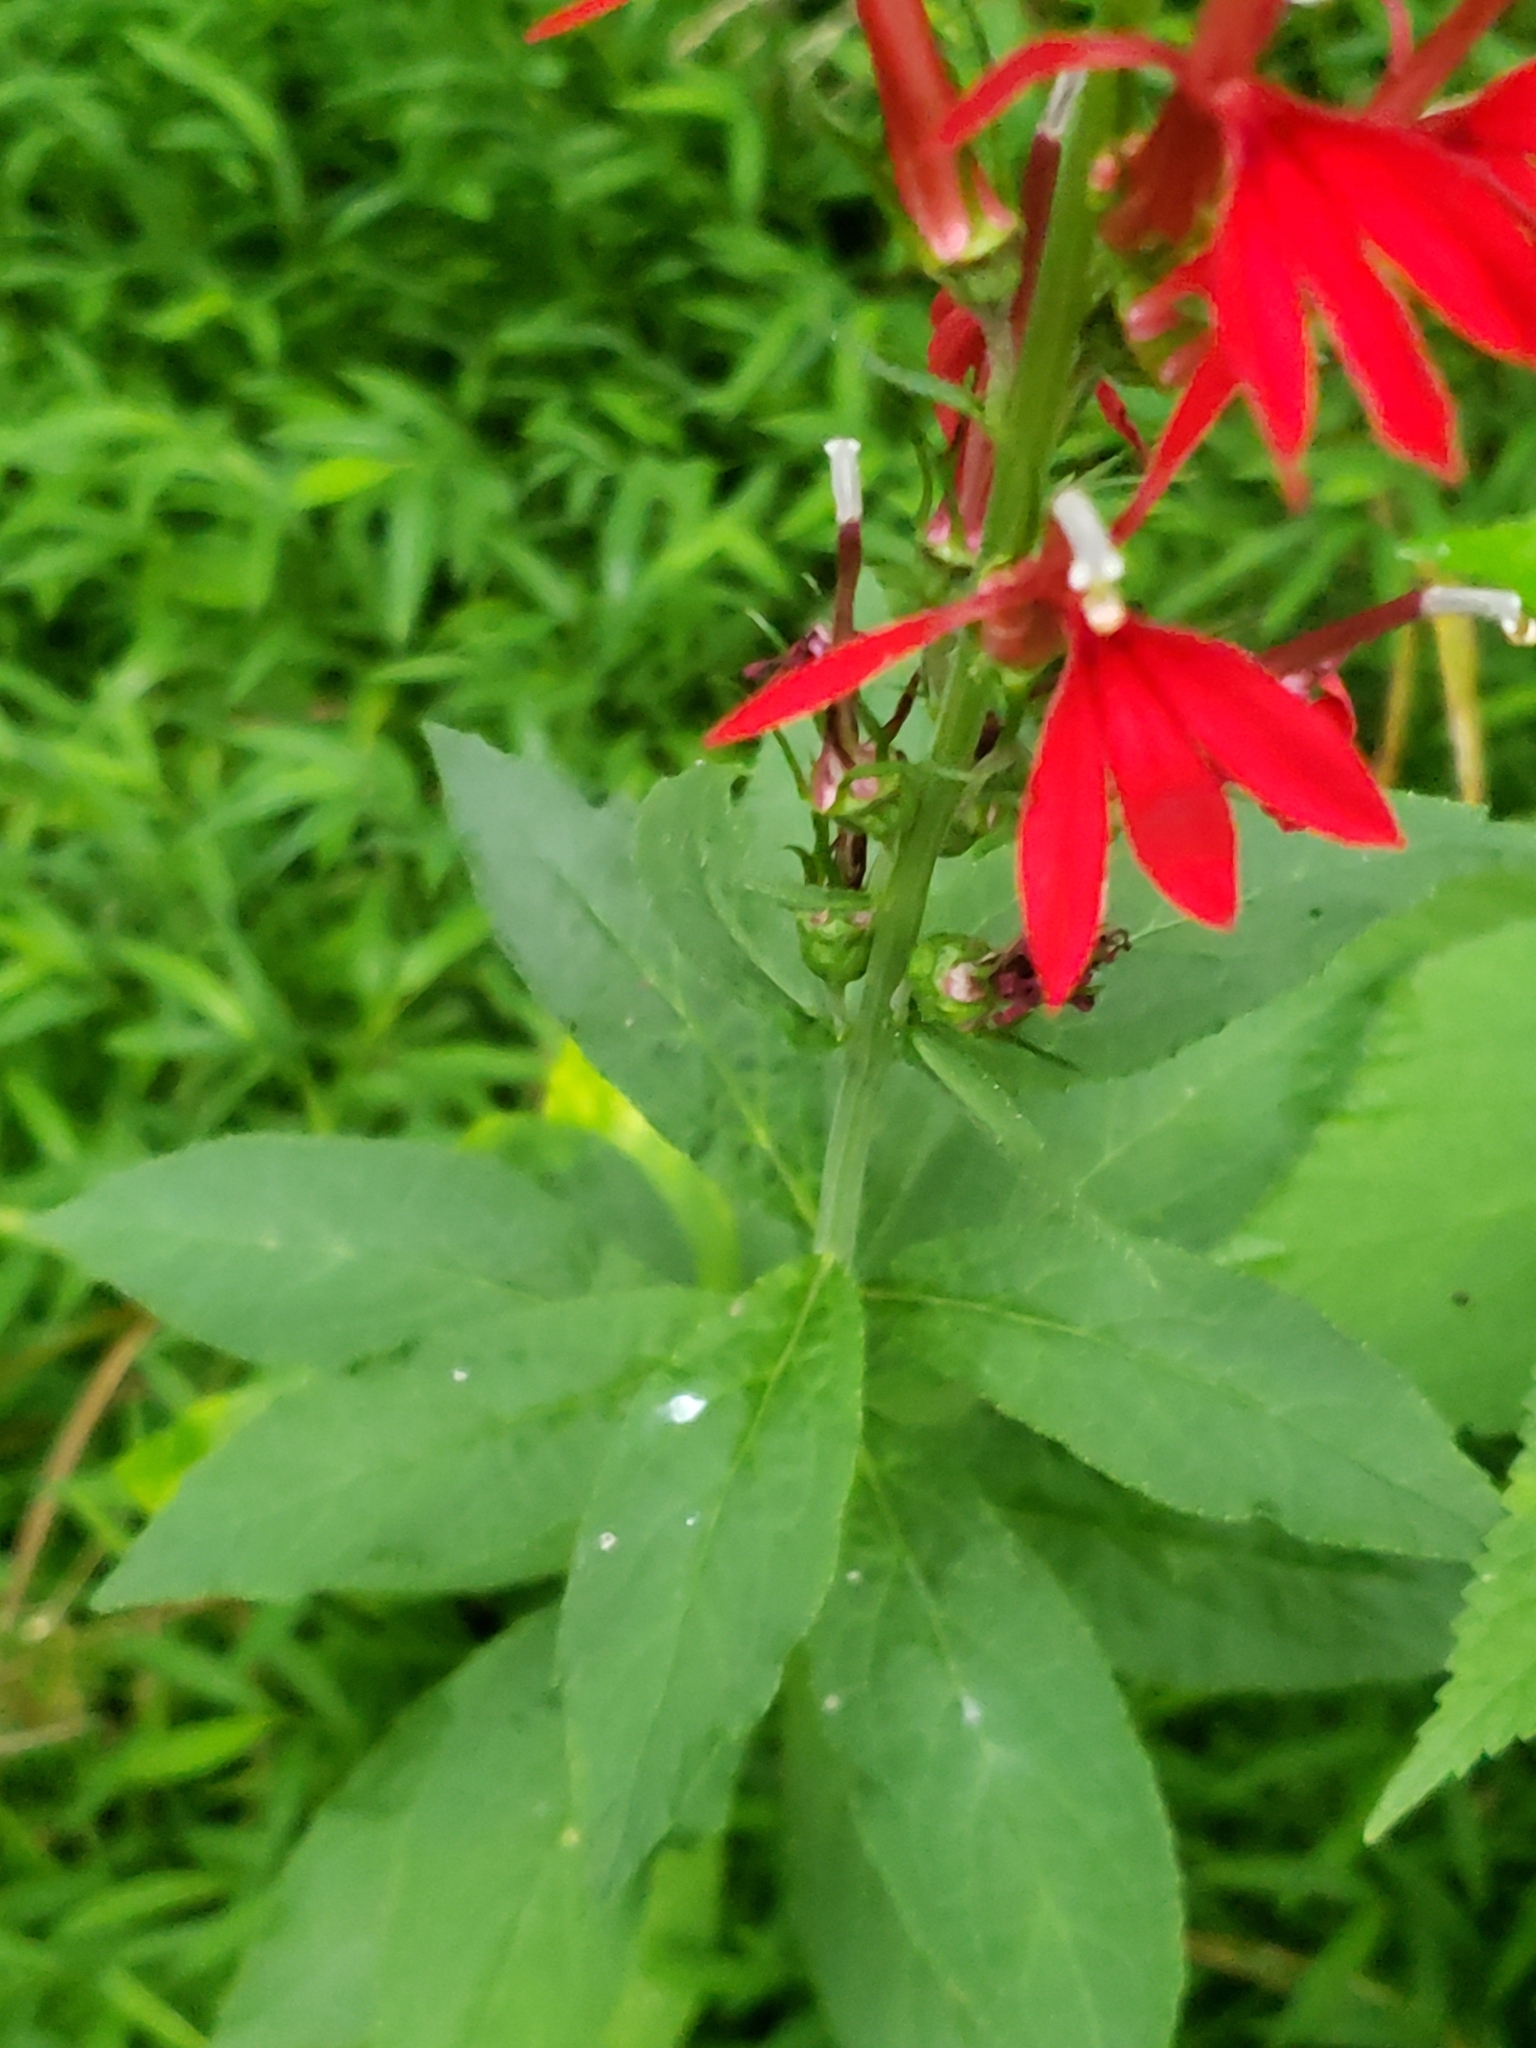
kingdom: Plantae
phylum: Tracheophyta
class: Magnoliopsida
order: Asterales
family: Campanulaceae
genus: Lobelia
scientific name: Lobelia cardinalis
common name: Cardinal flower
